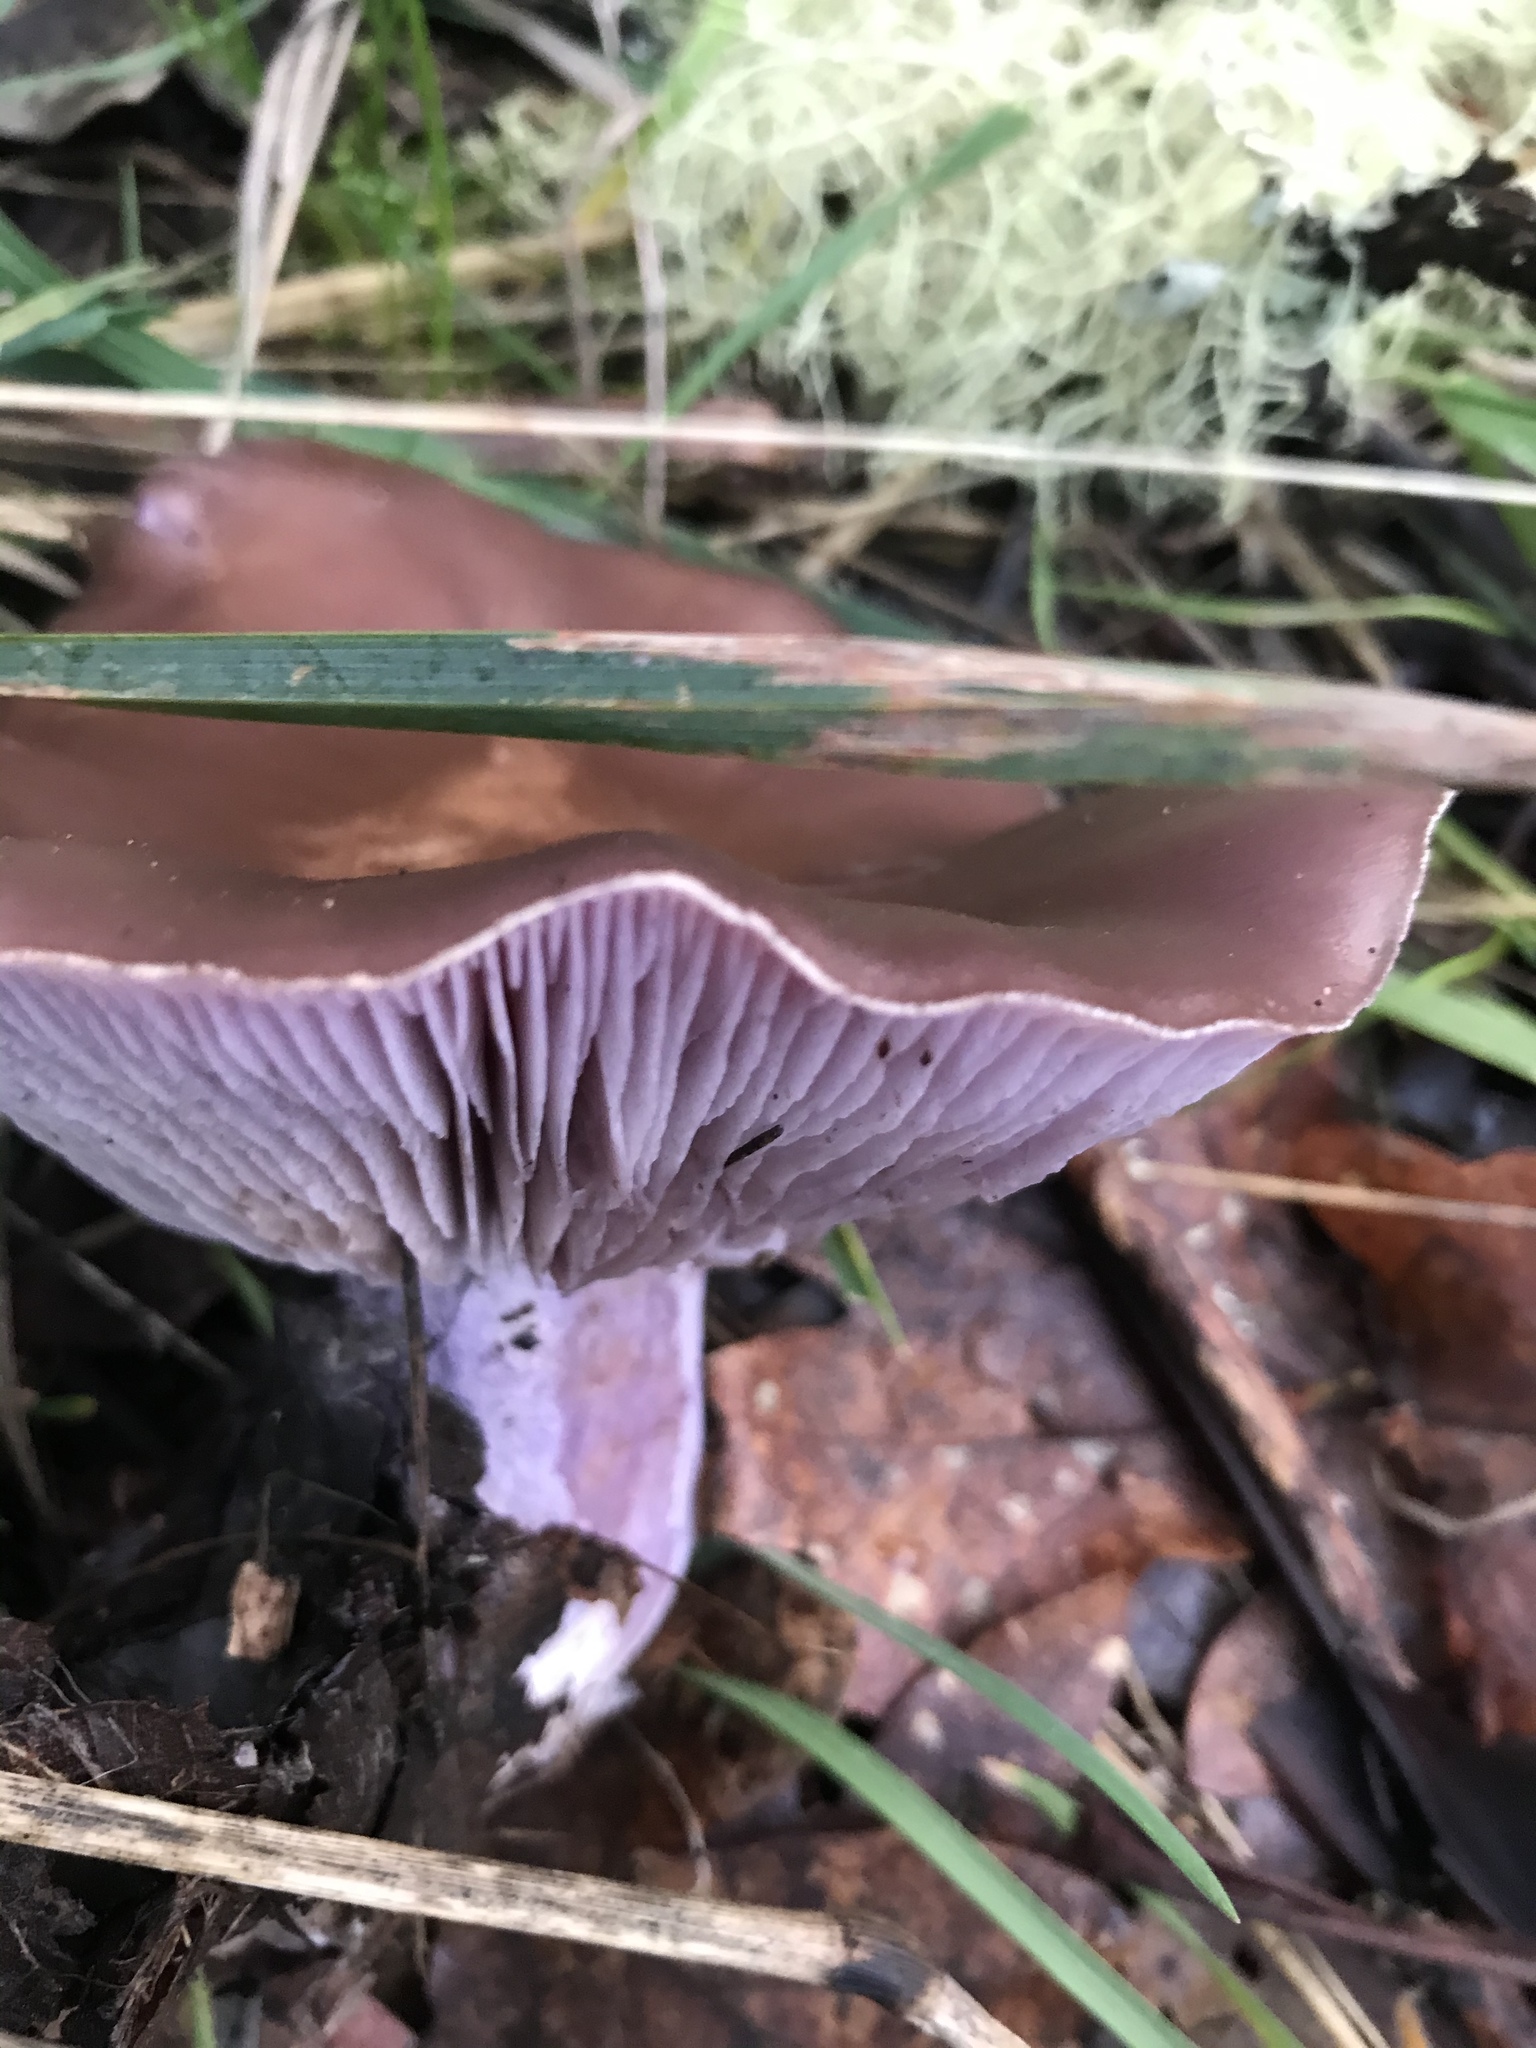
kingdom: Fungi
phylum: Basidiomycota
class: Agaricomycetes
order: Agaricales
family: Tricholomataceae
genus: Collybia
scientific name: Collybia
